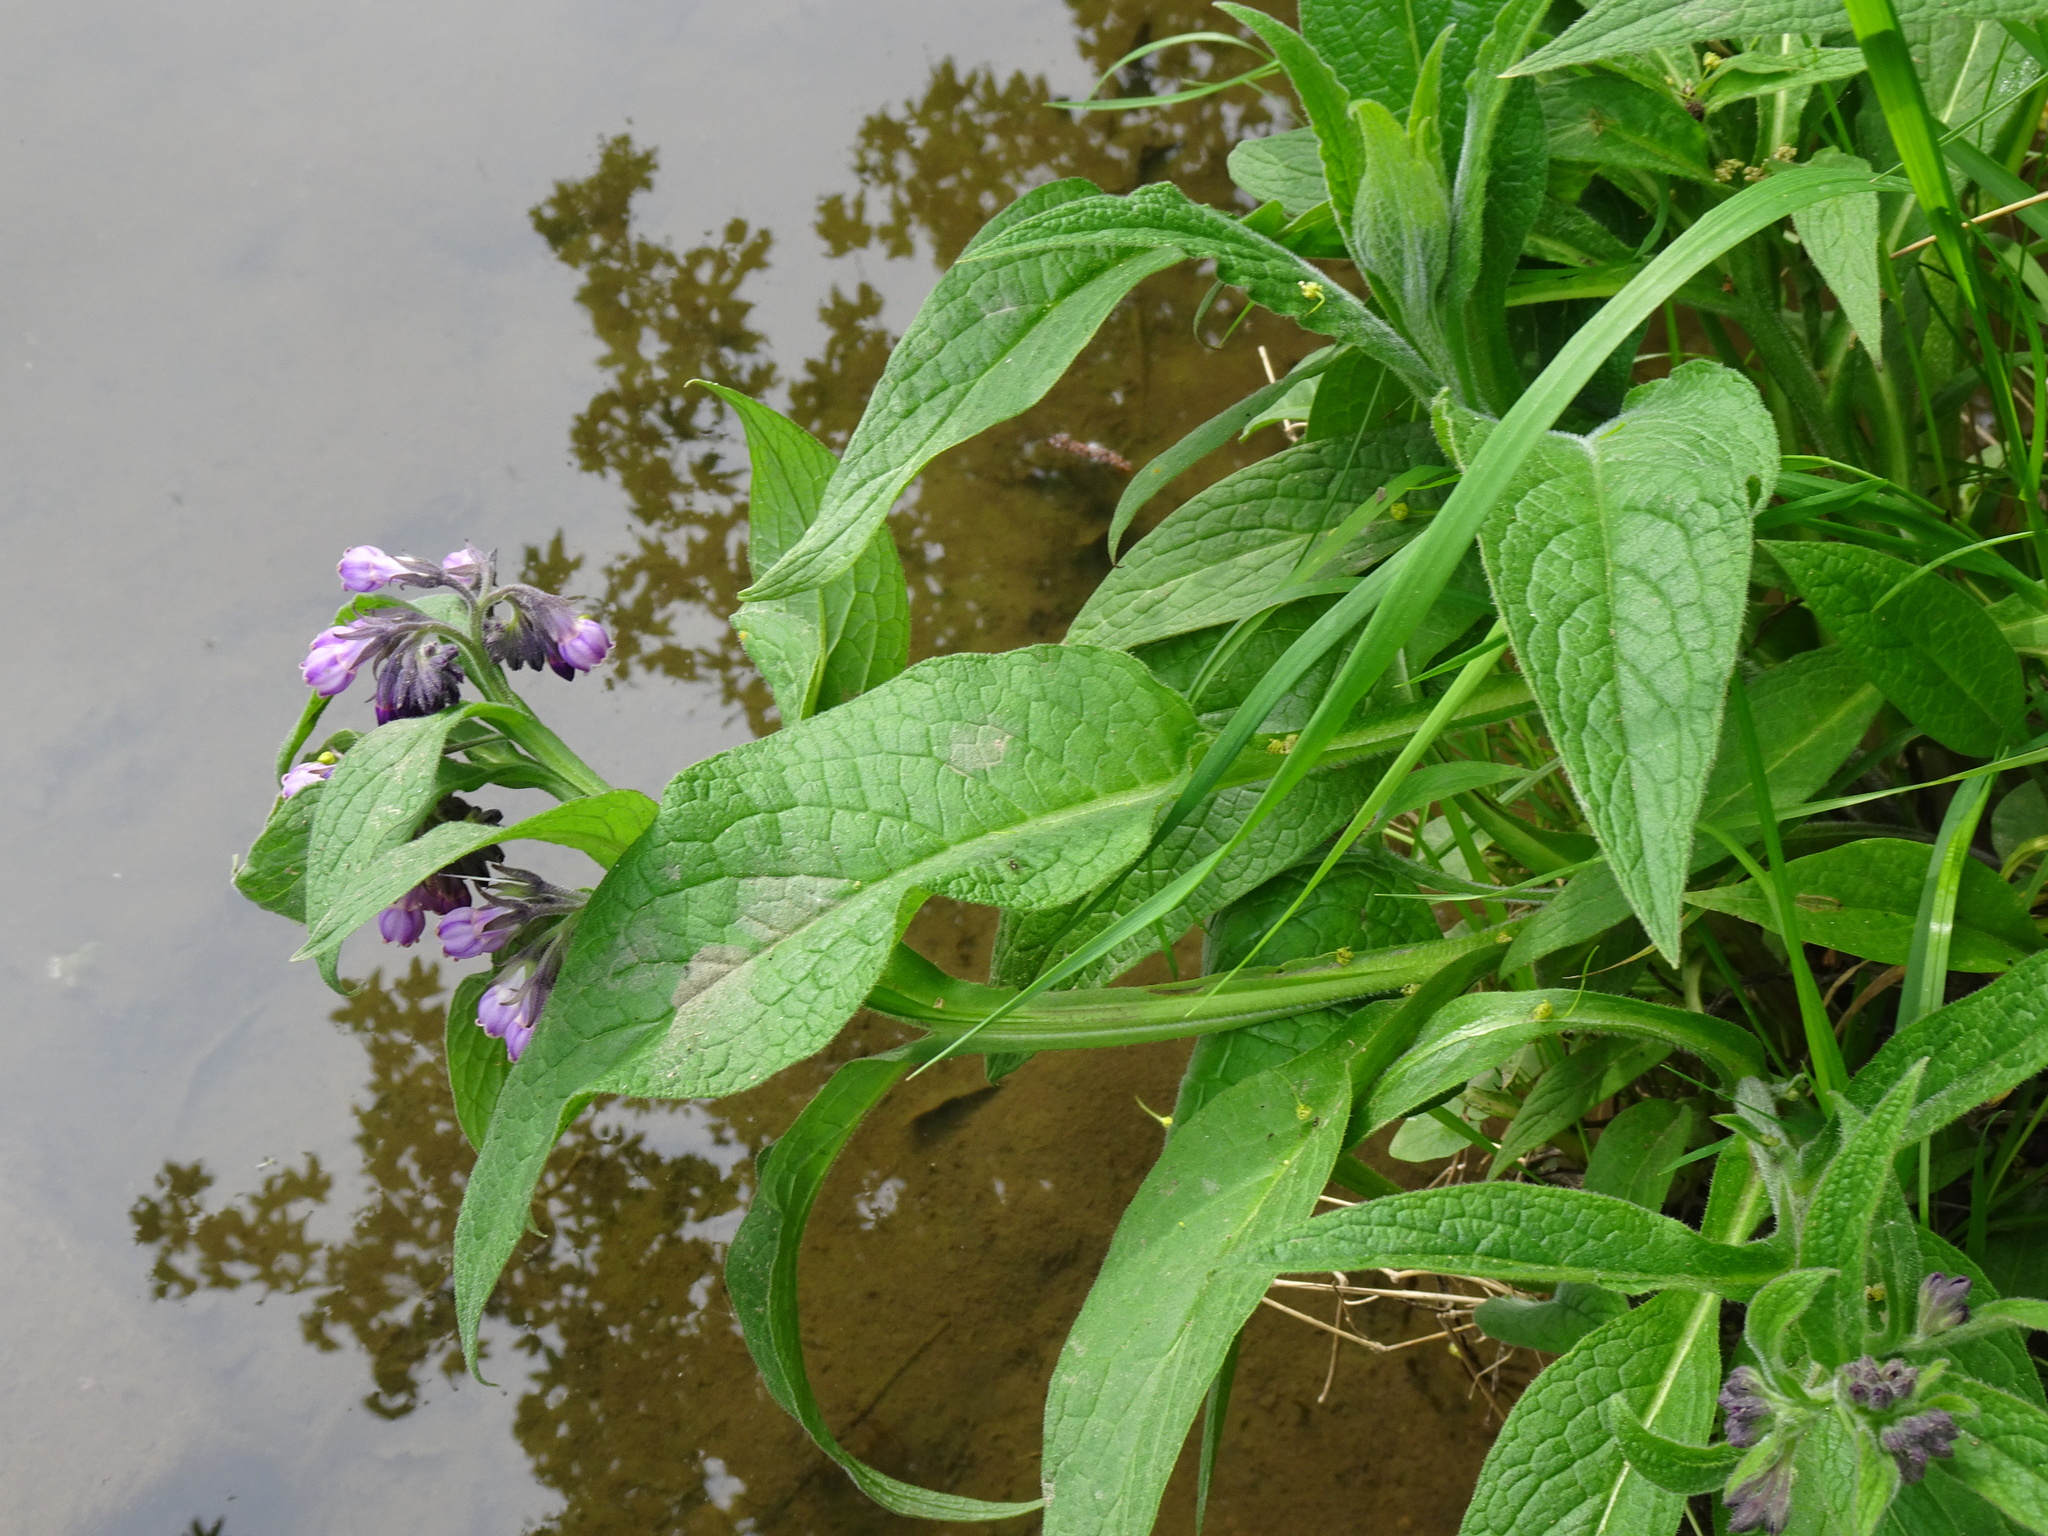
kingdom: Plantae
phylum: Tracheophyta
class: Magnoliopsida
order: Boraginales
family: Boraginaceae
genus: Symphytum
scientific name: Symphytum officinale
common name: Common comfrey
